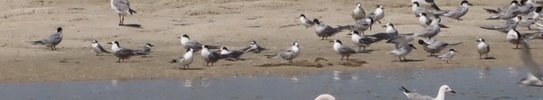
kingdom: Animalia
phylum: Chordata
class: Aves
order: Charadriiformes
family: Laridae
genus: Sternula
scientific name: Sternula albifrons
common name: Little tern
